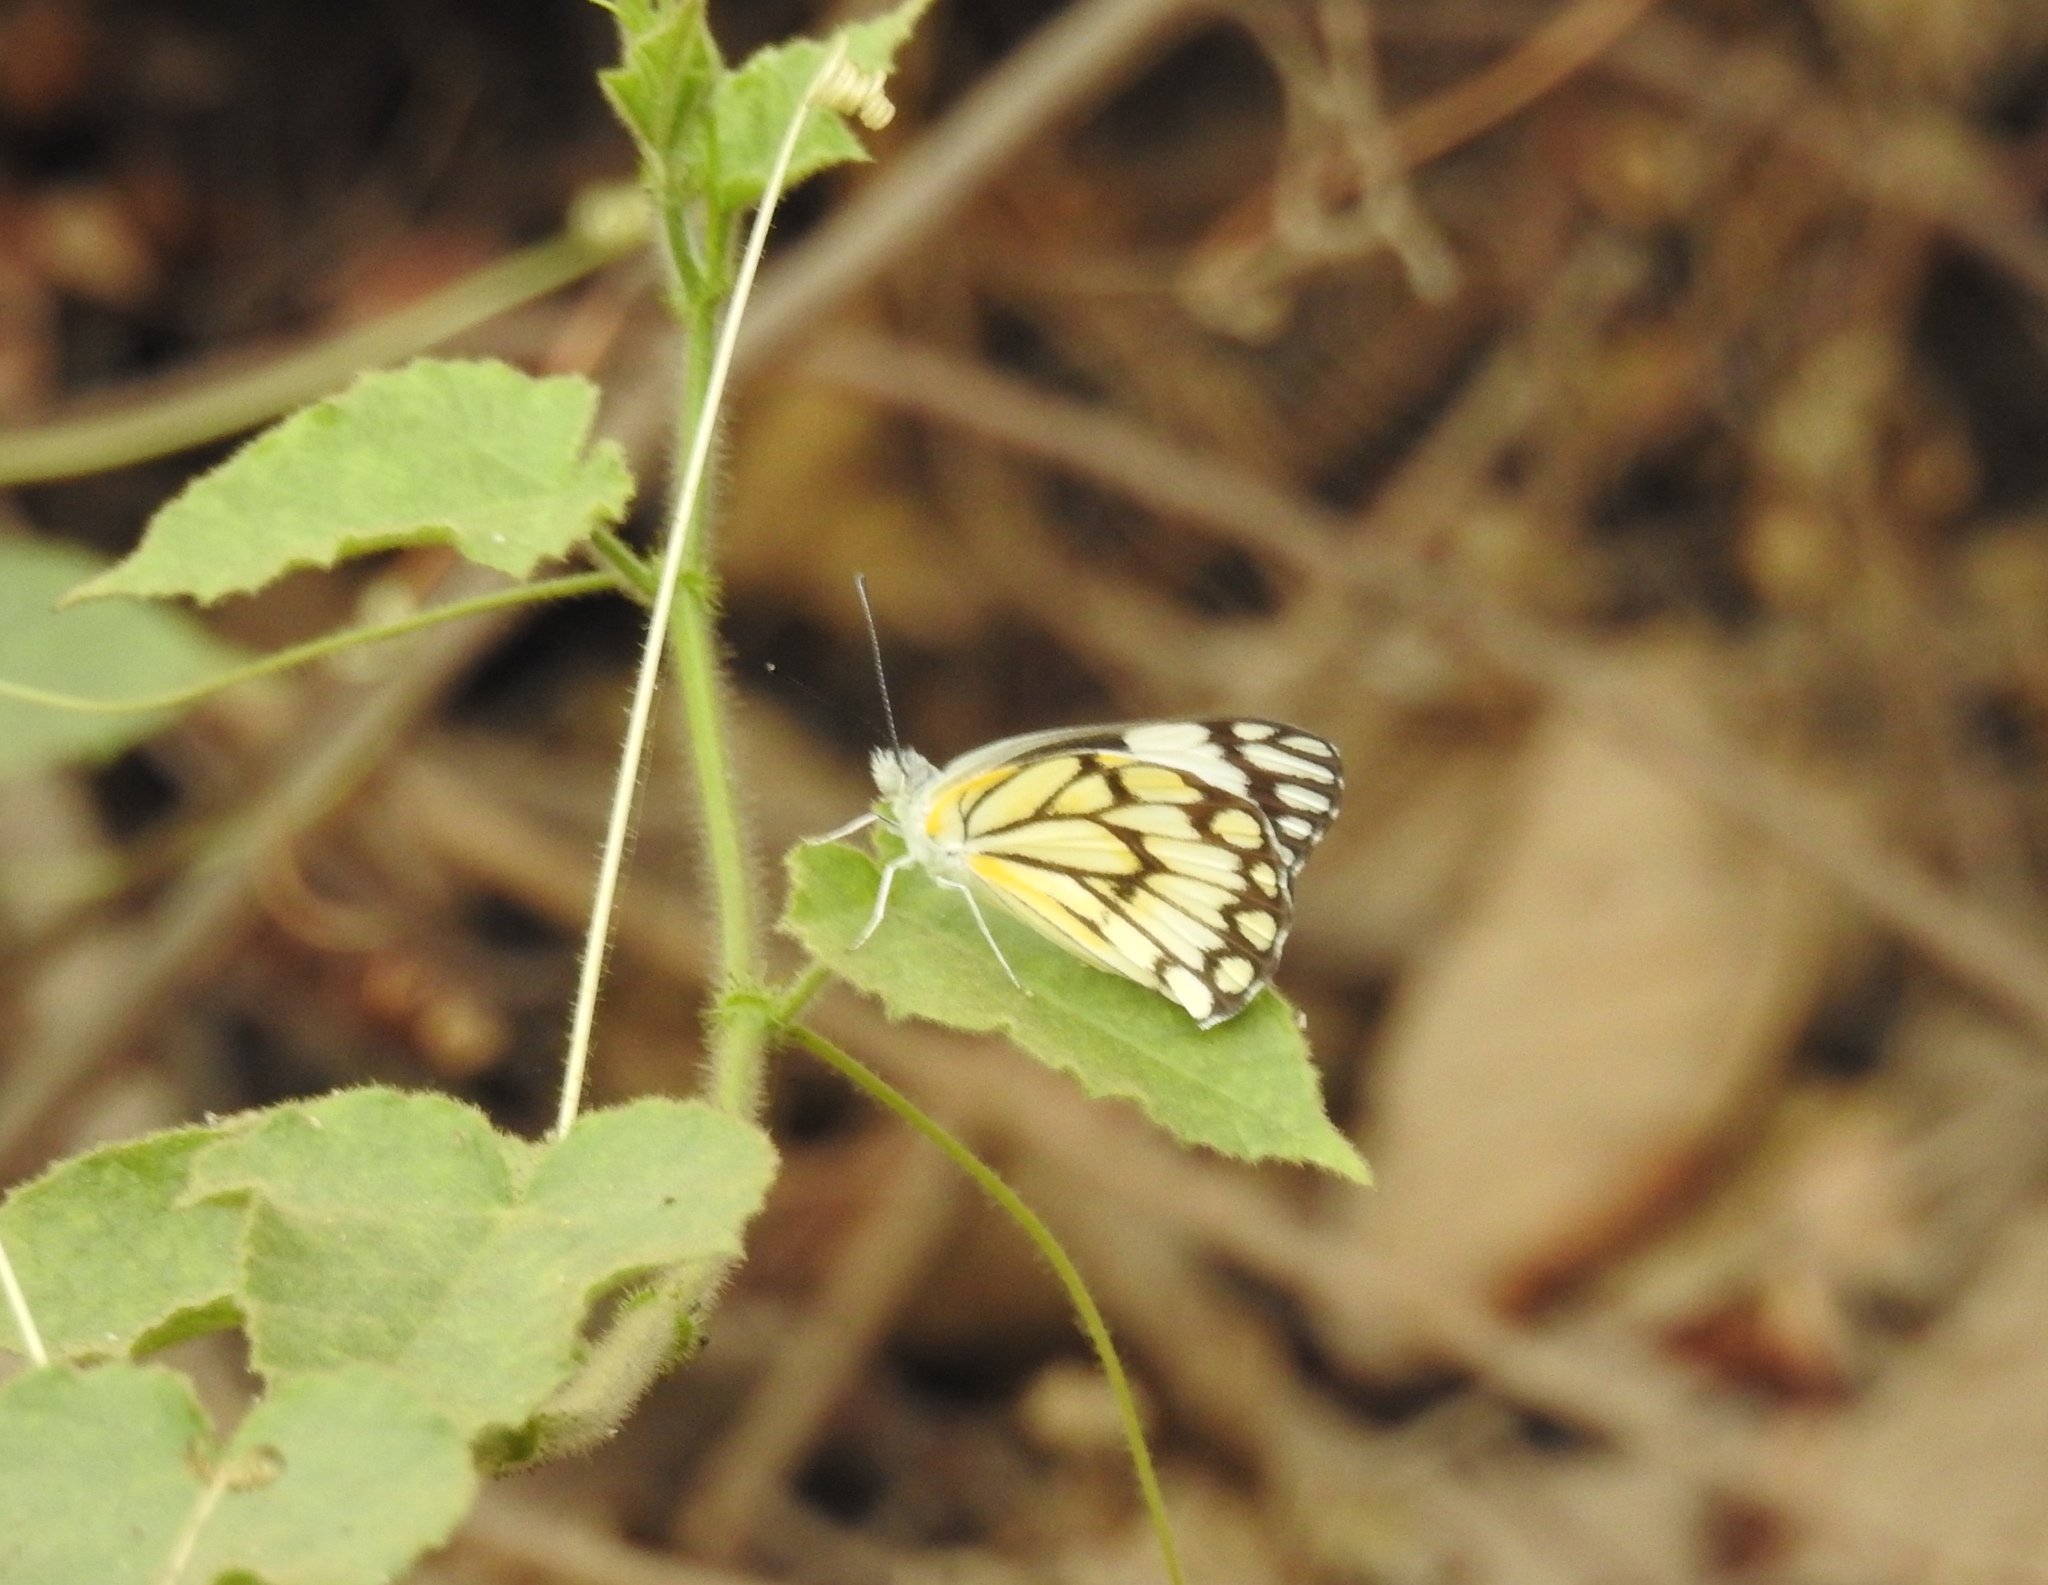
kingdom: Animalia
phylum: Arthropoda
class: Insecta
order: Lepidoptera
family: Pieridae
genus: Belenois
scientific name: Belenois aurota
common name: Brown-veined white
